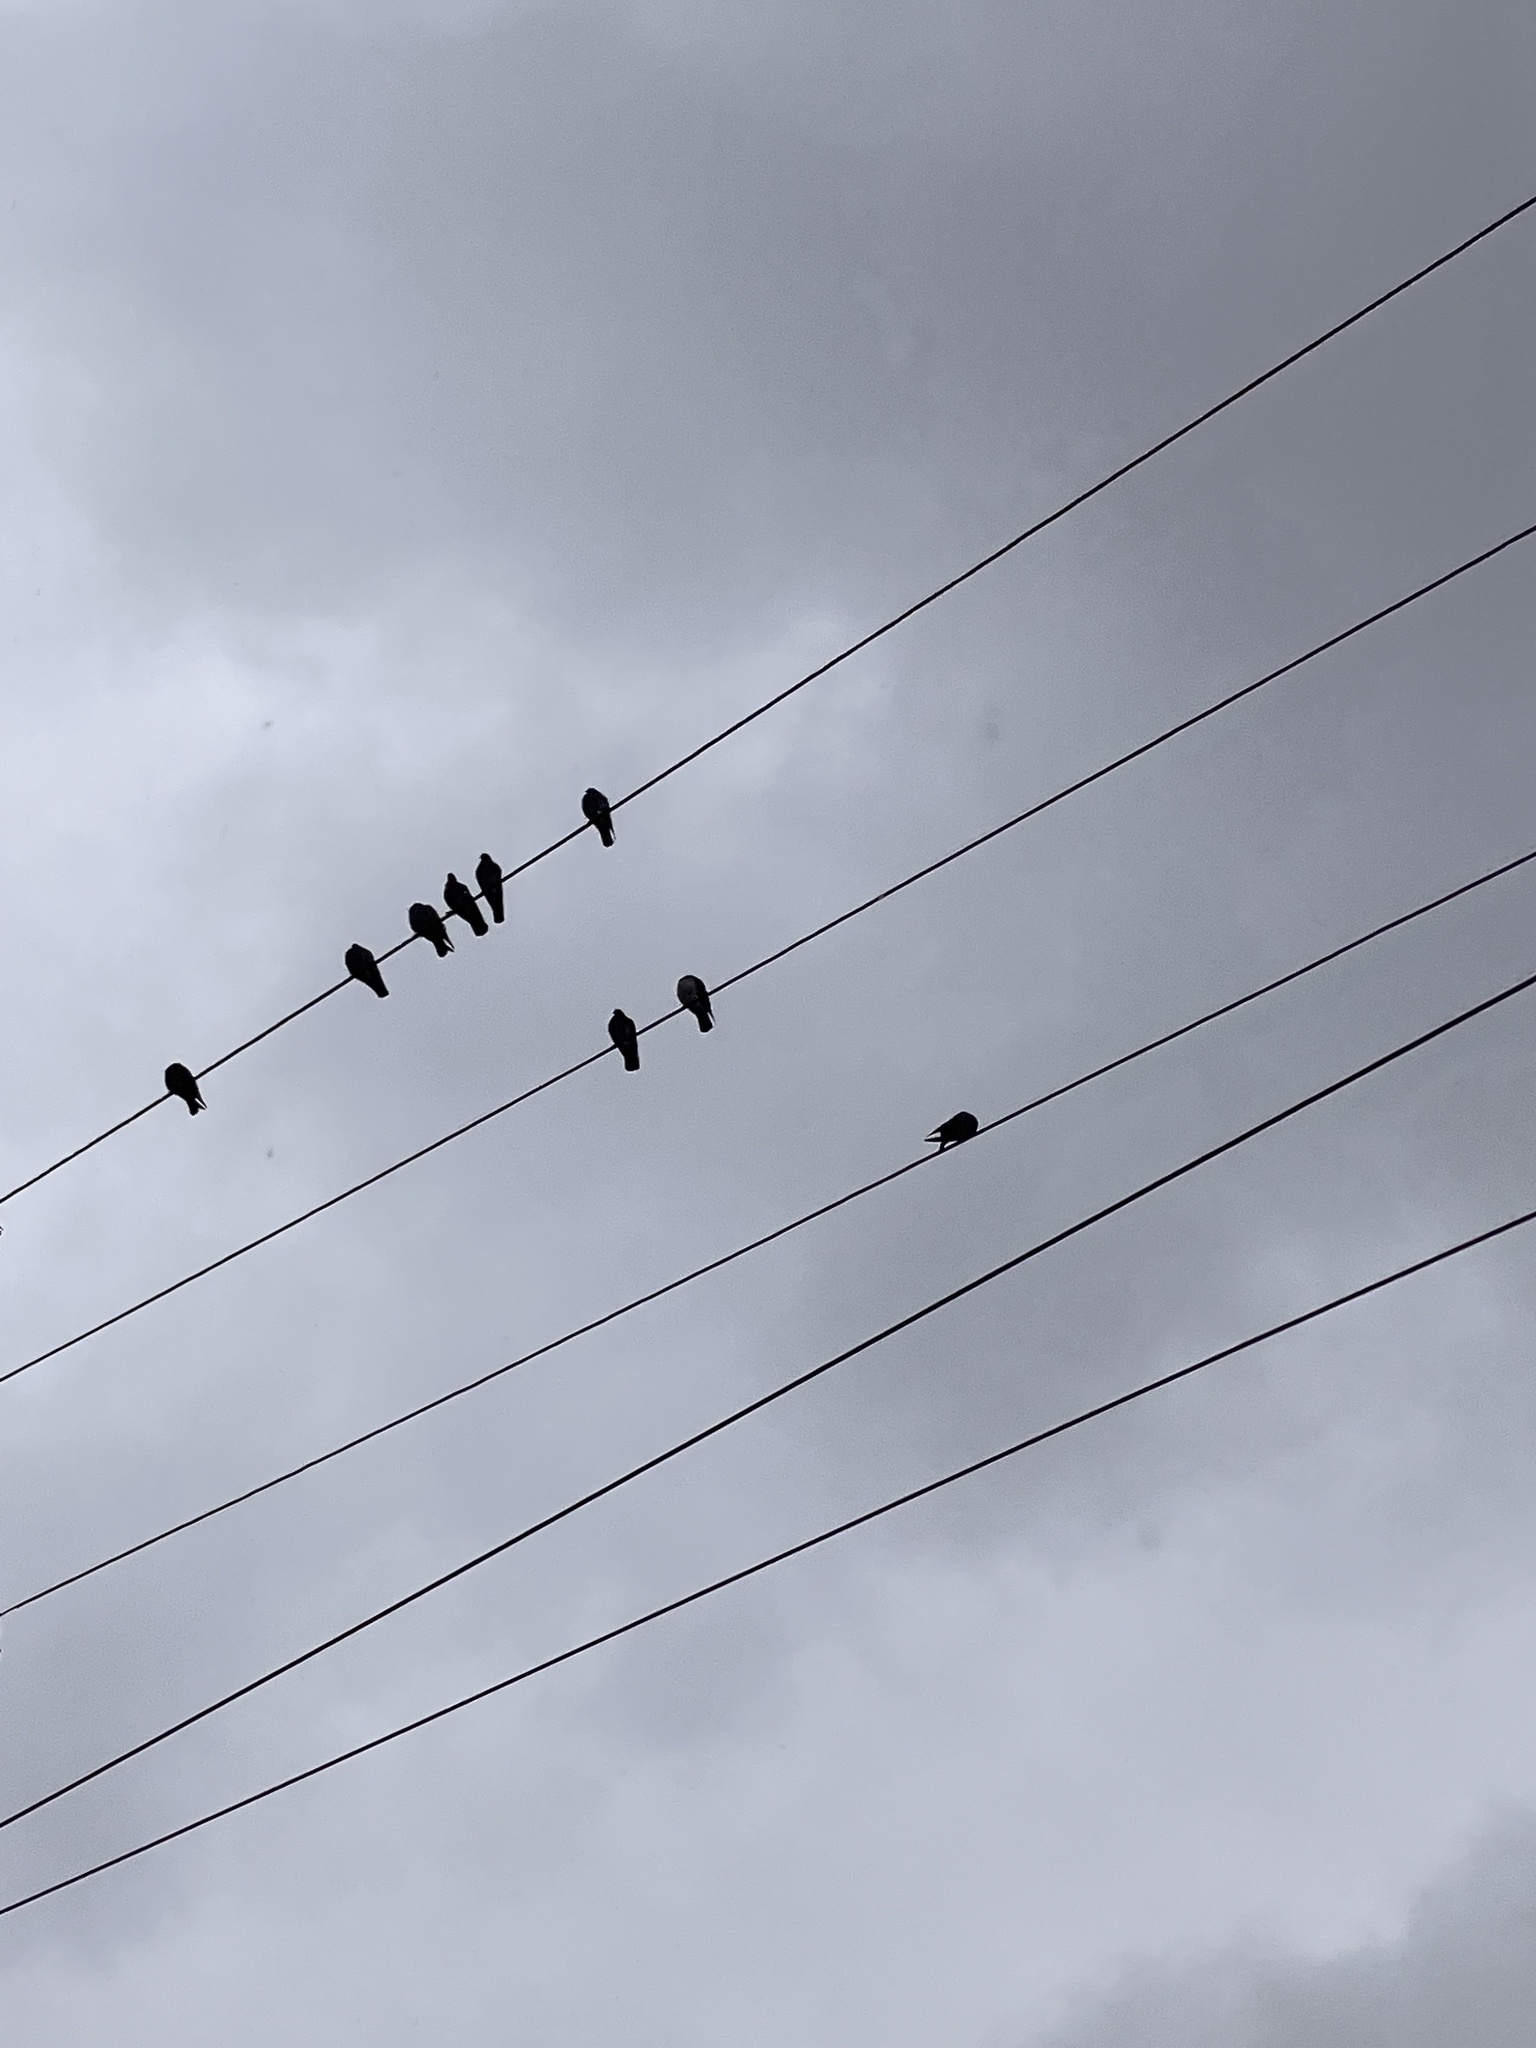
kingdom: Animalia
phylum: Chordata
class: Aves
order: Columbiformes
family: Columbidae
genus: Columba
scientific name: Columba livia
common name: Rock pigeon
